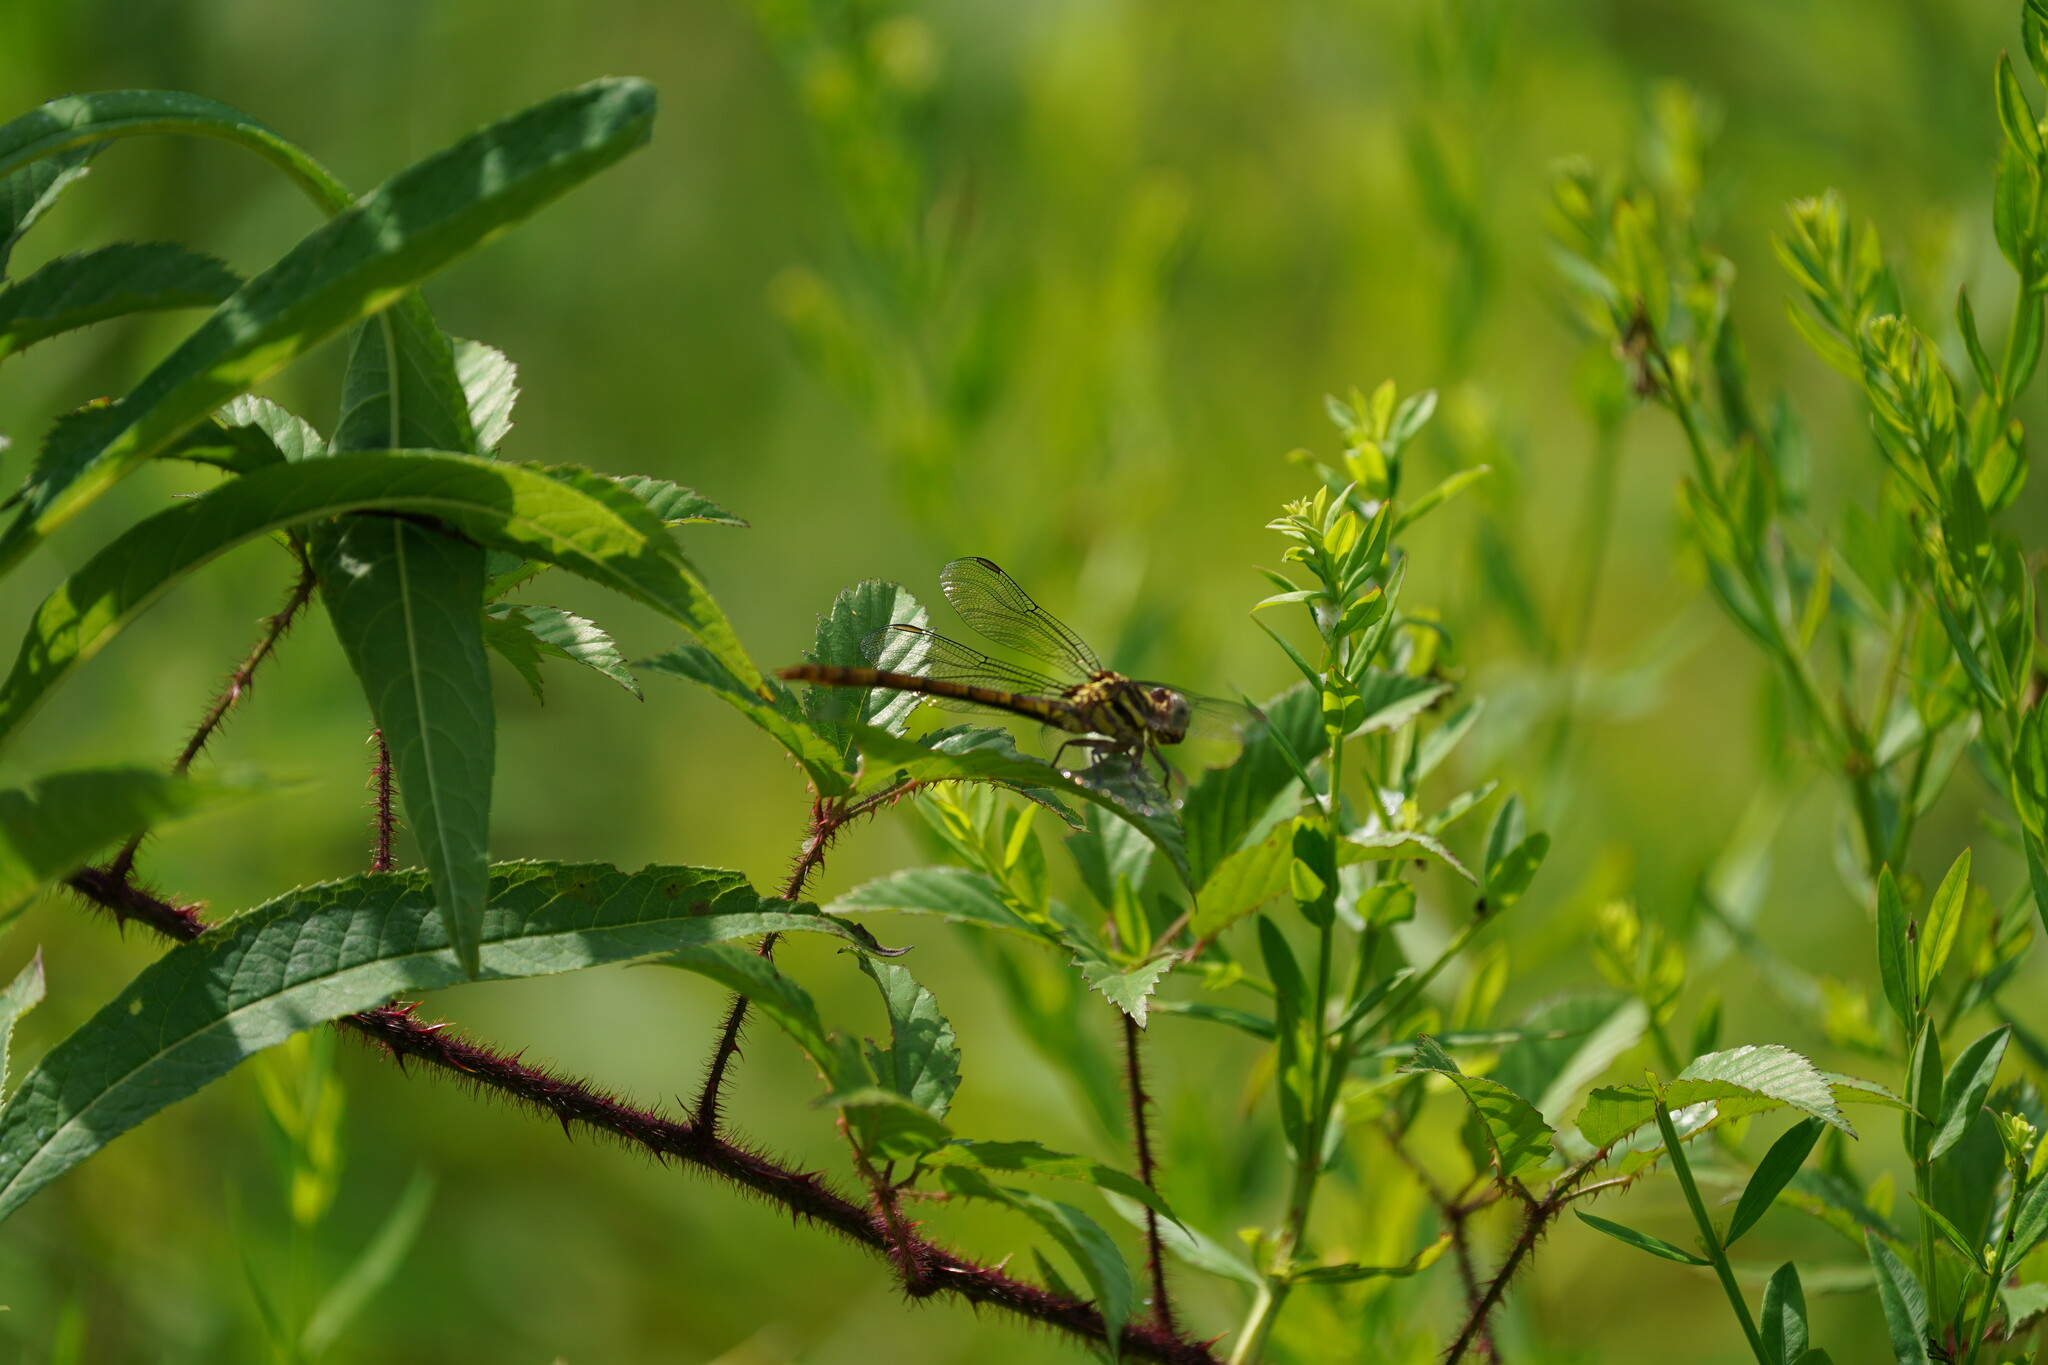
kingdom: Animalia
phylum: Arthropoda
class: Insecta
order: Odonata
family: Gomphidae
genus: Aphylla
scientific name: Aphylla angustifolia
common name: Broad-striped forceptail
